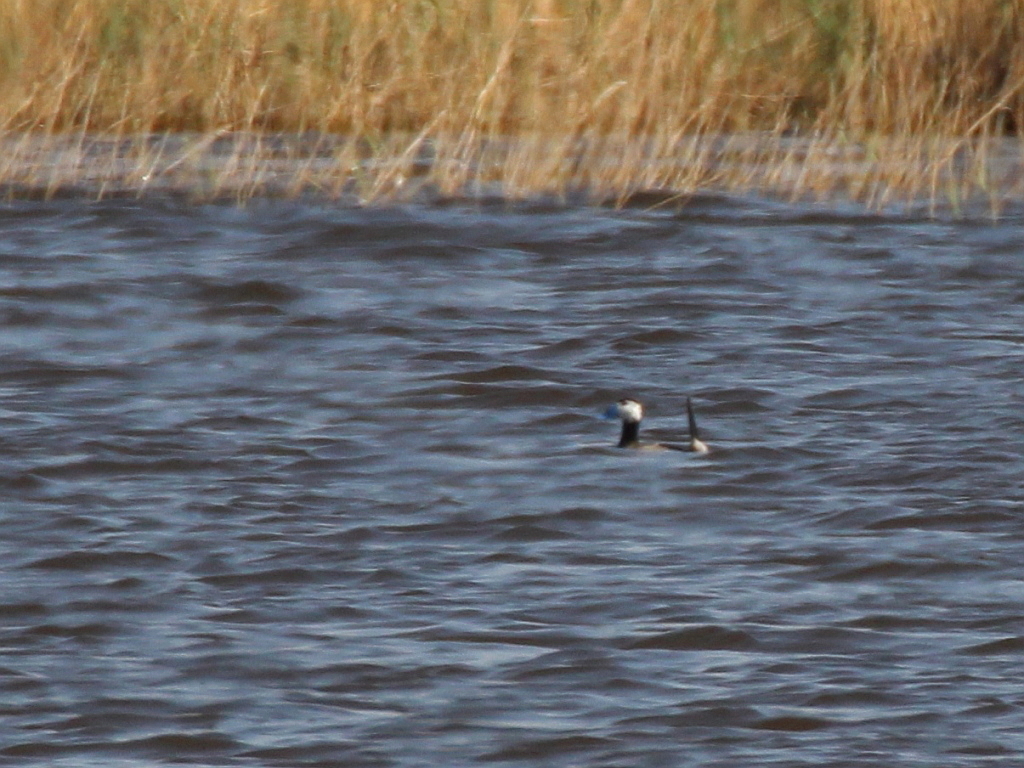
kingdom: Animalia
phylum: Chordata
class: Aves
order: Anseriformes
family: Anatidae
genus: Oxyura
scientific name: Oxyura leucocephala
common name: White-headed duck
